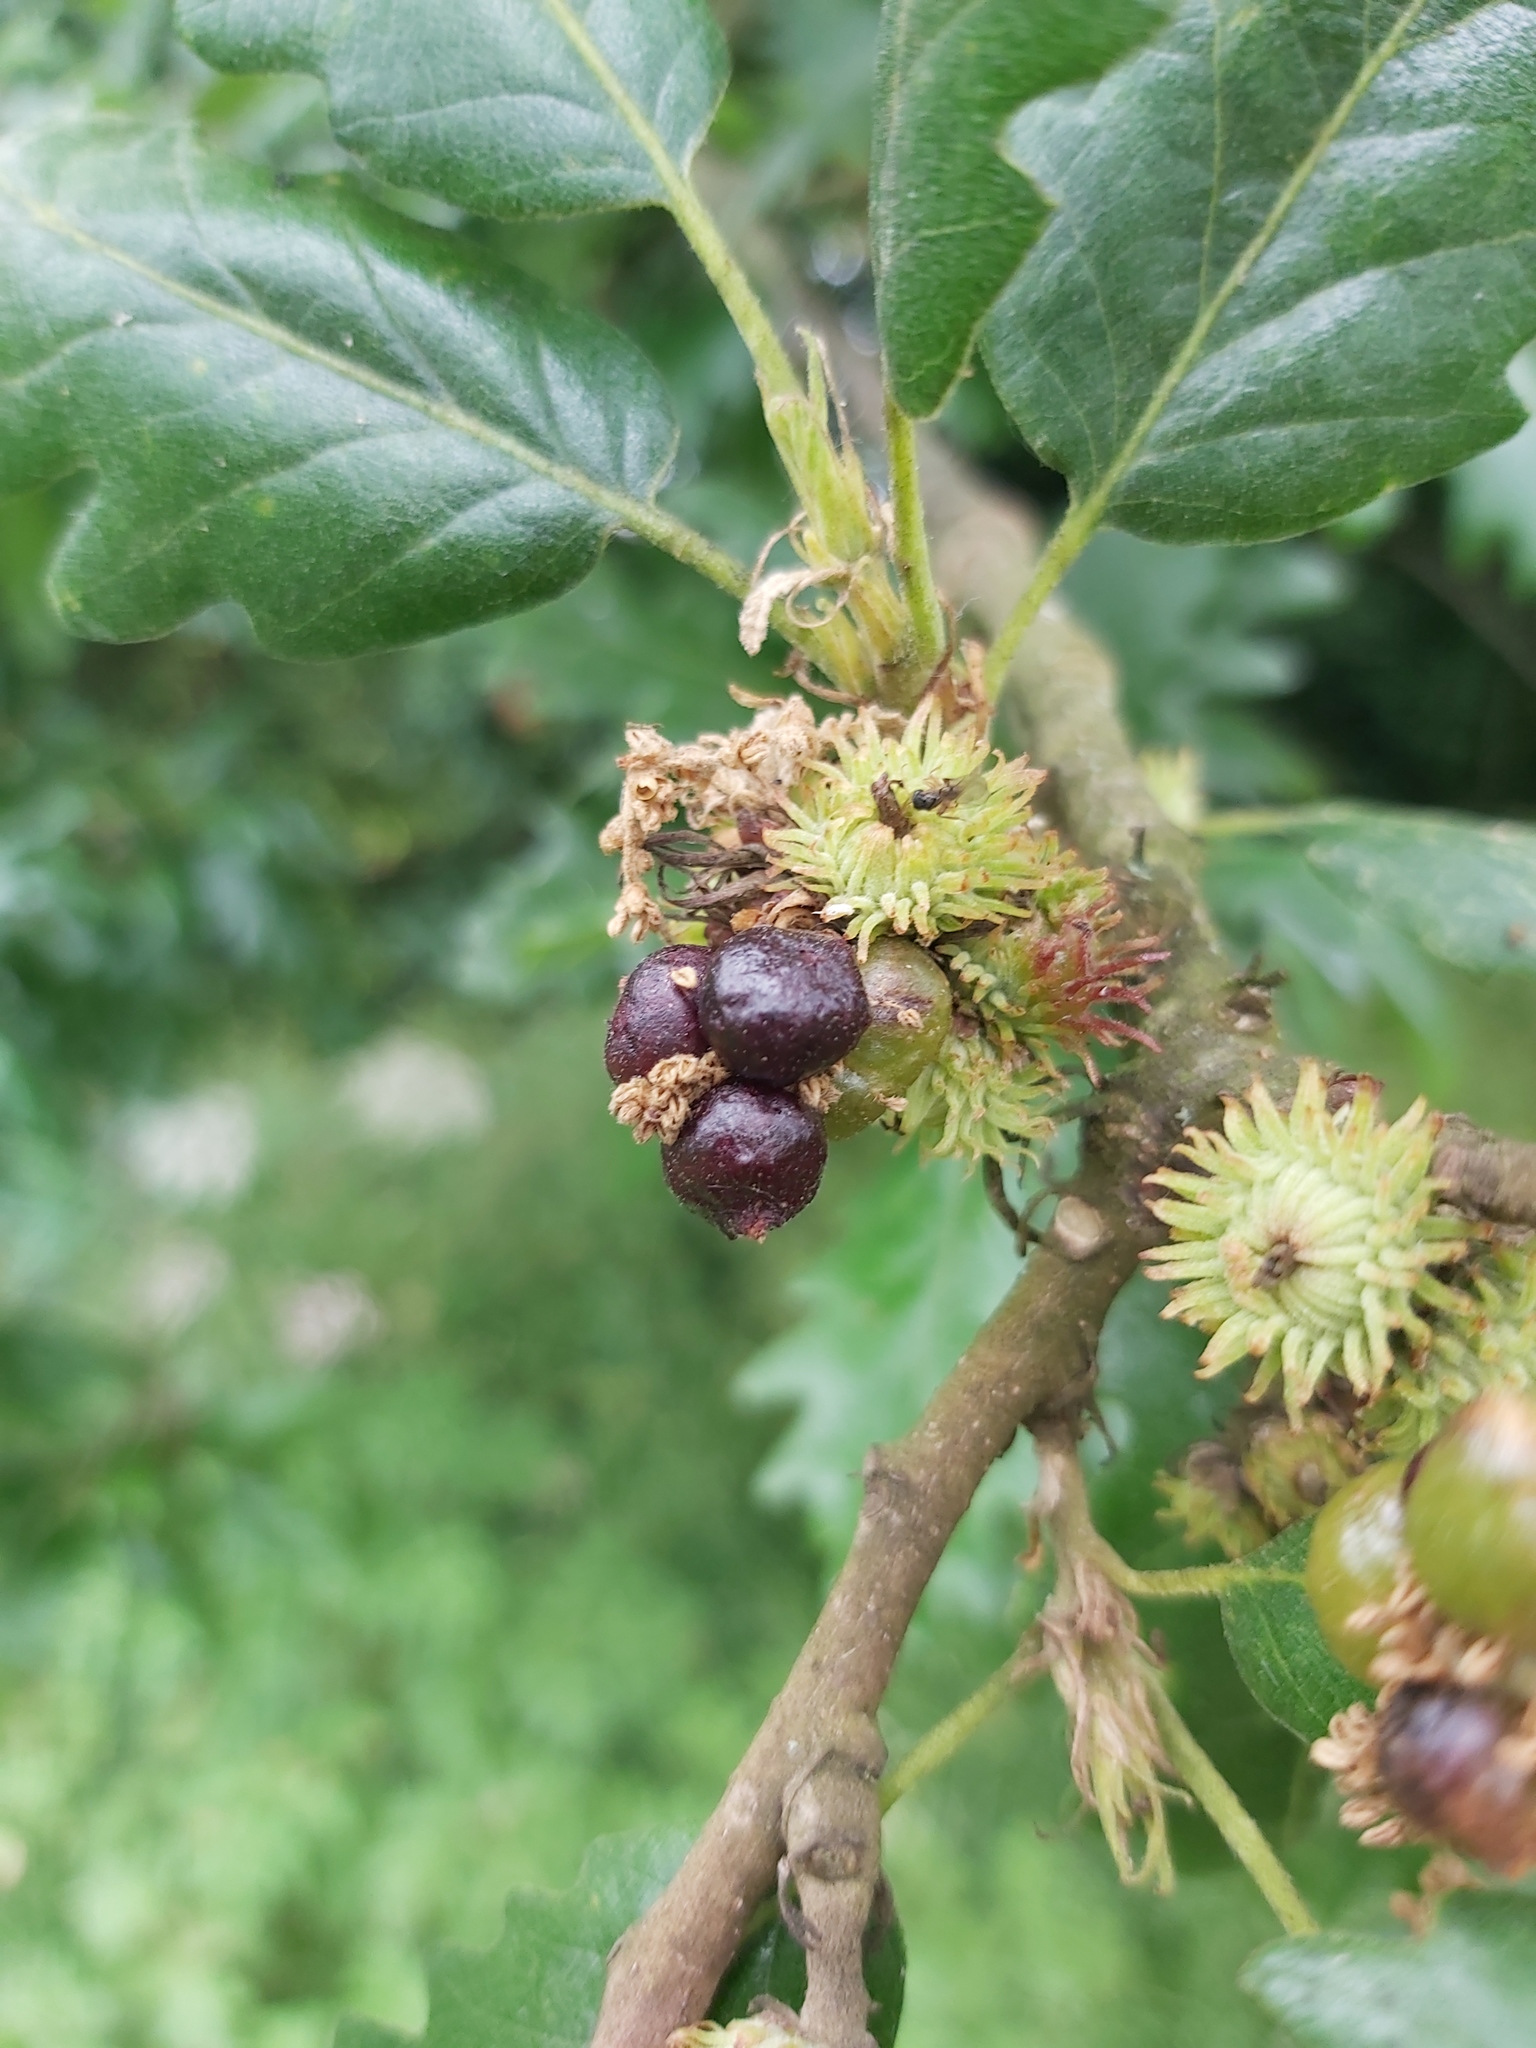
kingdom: Plantae
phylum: Tracheophyta
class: Magnoliopsida
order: Fagales
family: Fagaceae
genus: Quercus
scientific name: Quercus cerris
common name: Turkey oak
